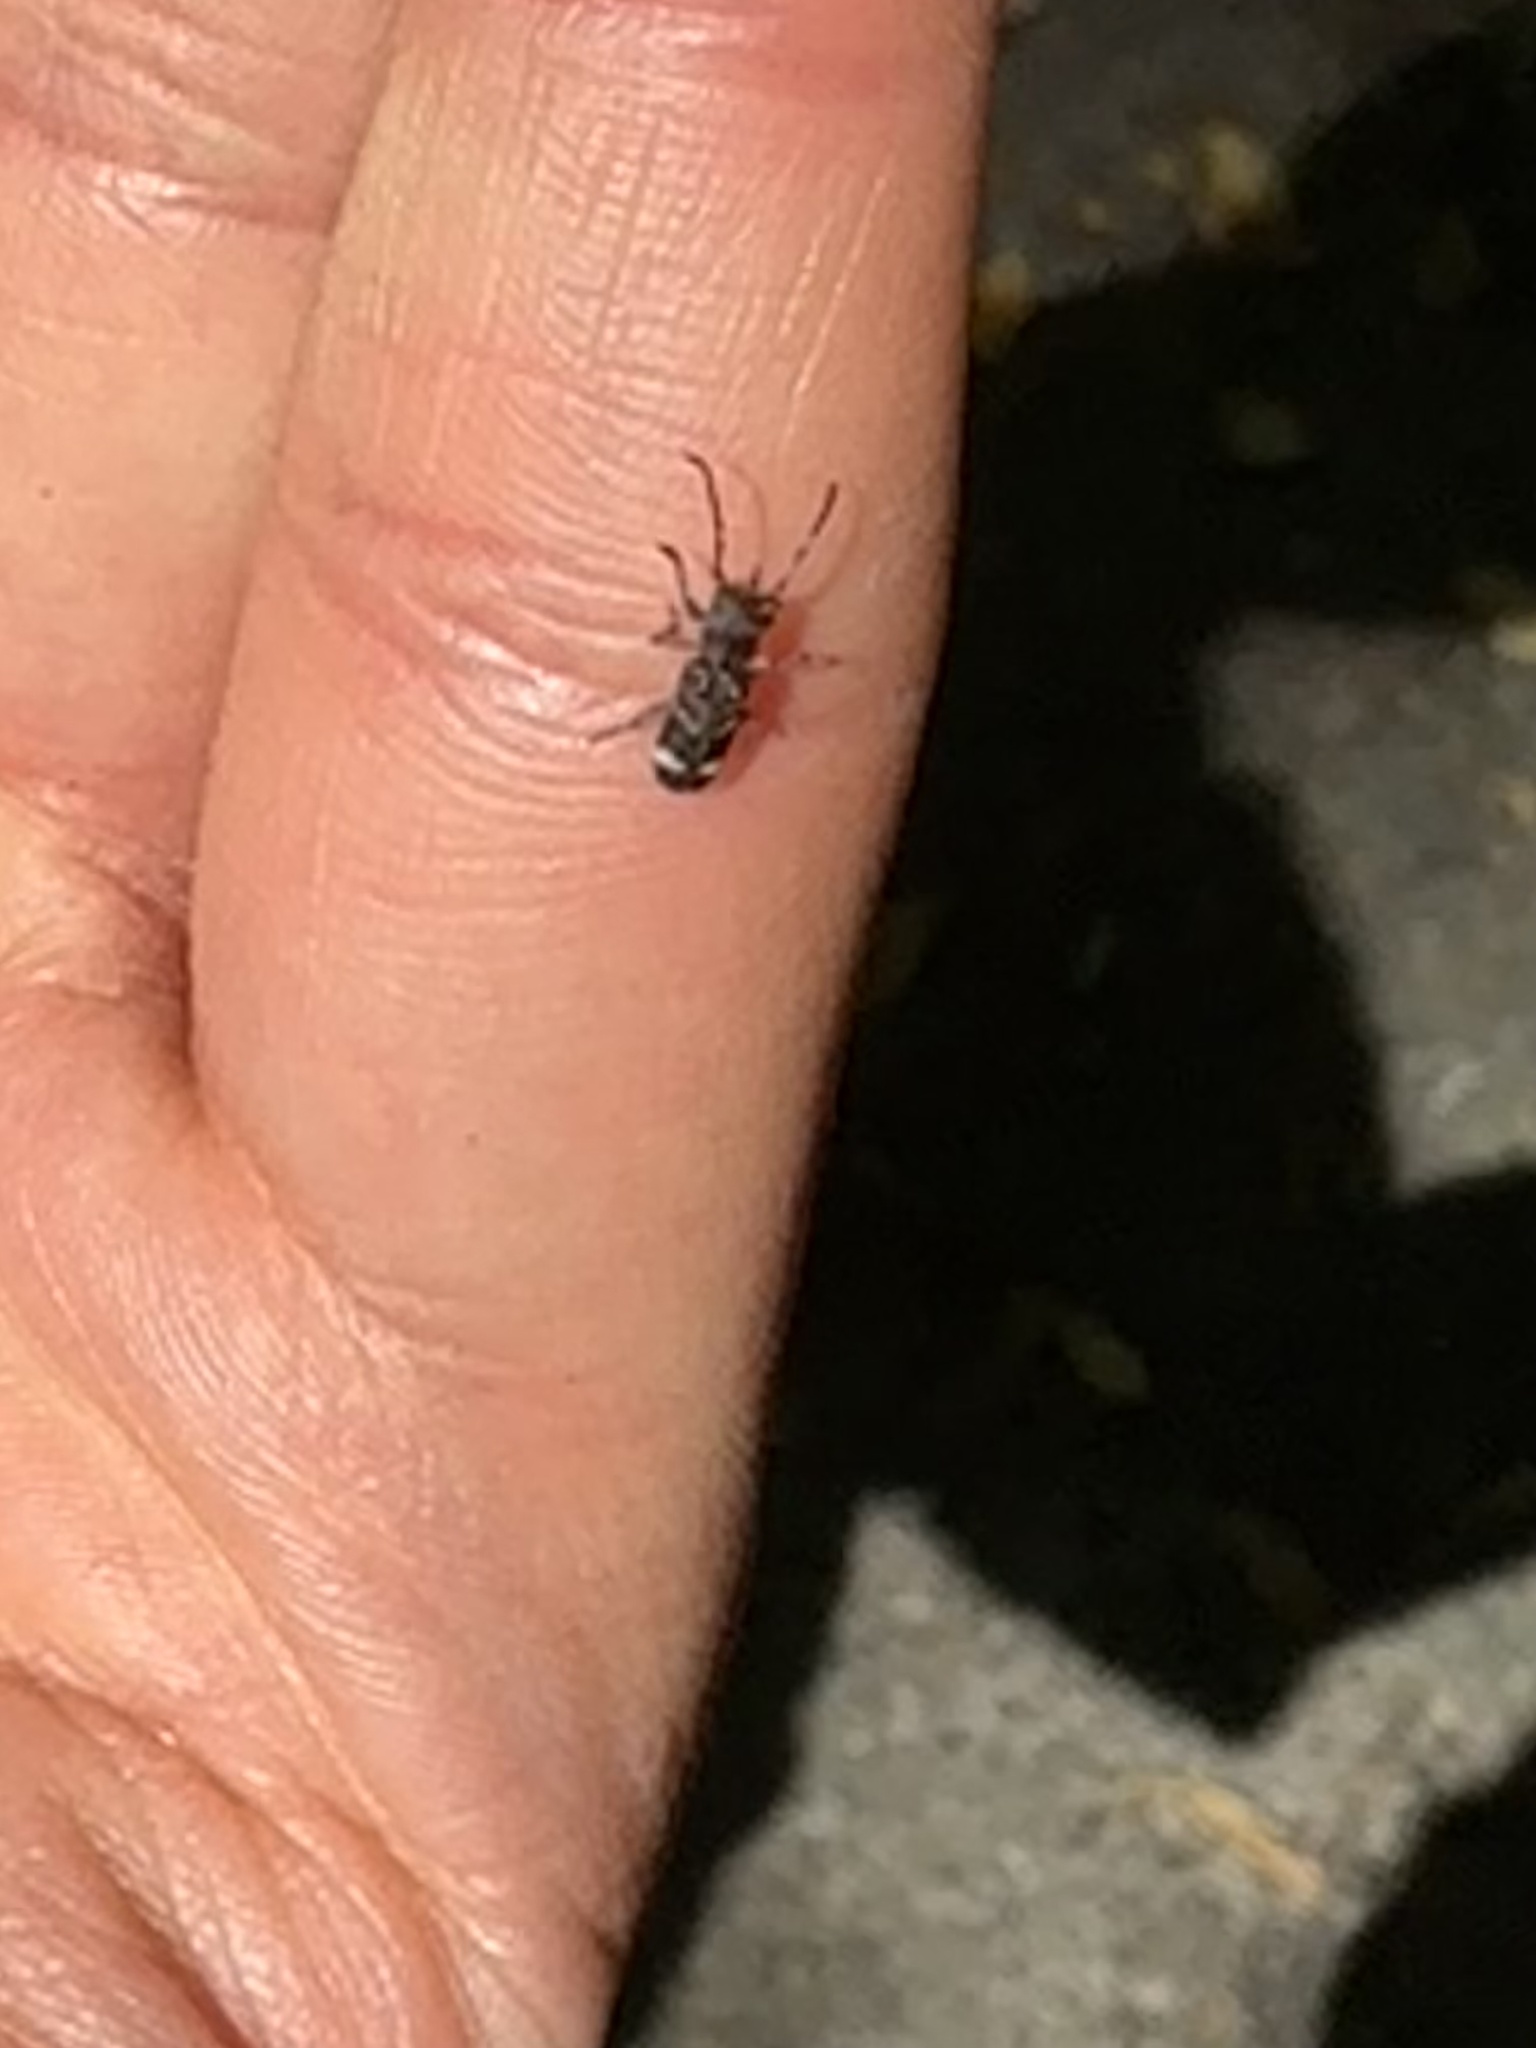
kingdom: Animalia
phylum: Arthropoda
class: Insecta
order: Coleoptera
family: Cerambycidae
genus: Psenocerus
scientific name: Psenocerus supernotatus
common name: Currant-tip borer
